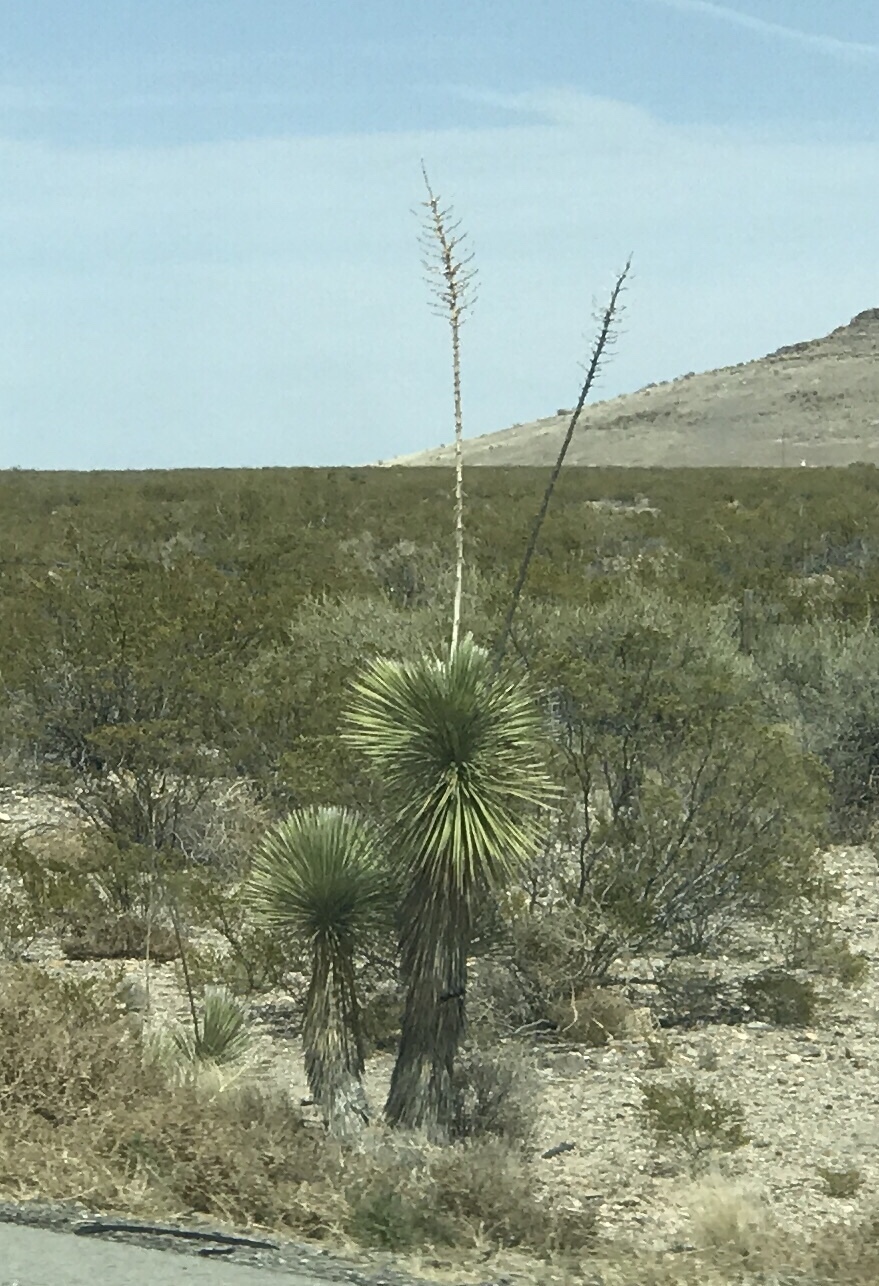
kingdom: Plantae
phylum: Tracheophyta
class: Liliopsida
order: Asparagales
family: Asparagaceae
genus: Yucca
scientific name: Yucca elata
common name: Palmella
